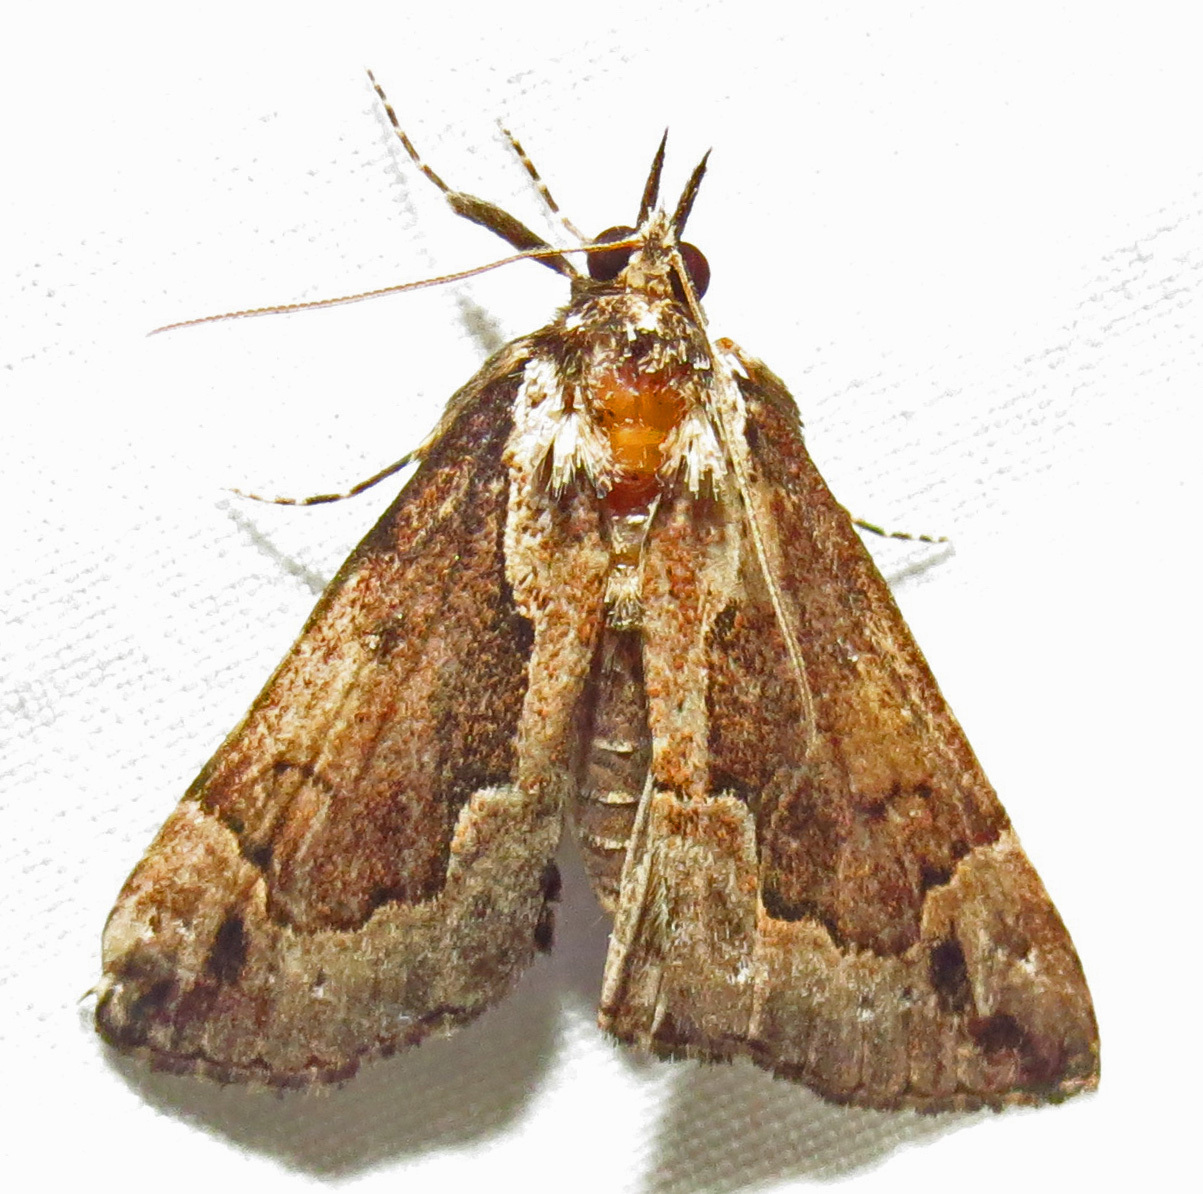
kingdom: Animalia
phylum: Arthropoda
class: Insecta
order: Lepidoptera
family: Erebidae
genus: Hypena
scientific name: Hypena baltimoralis
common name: Baltimore snout
